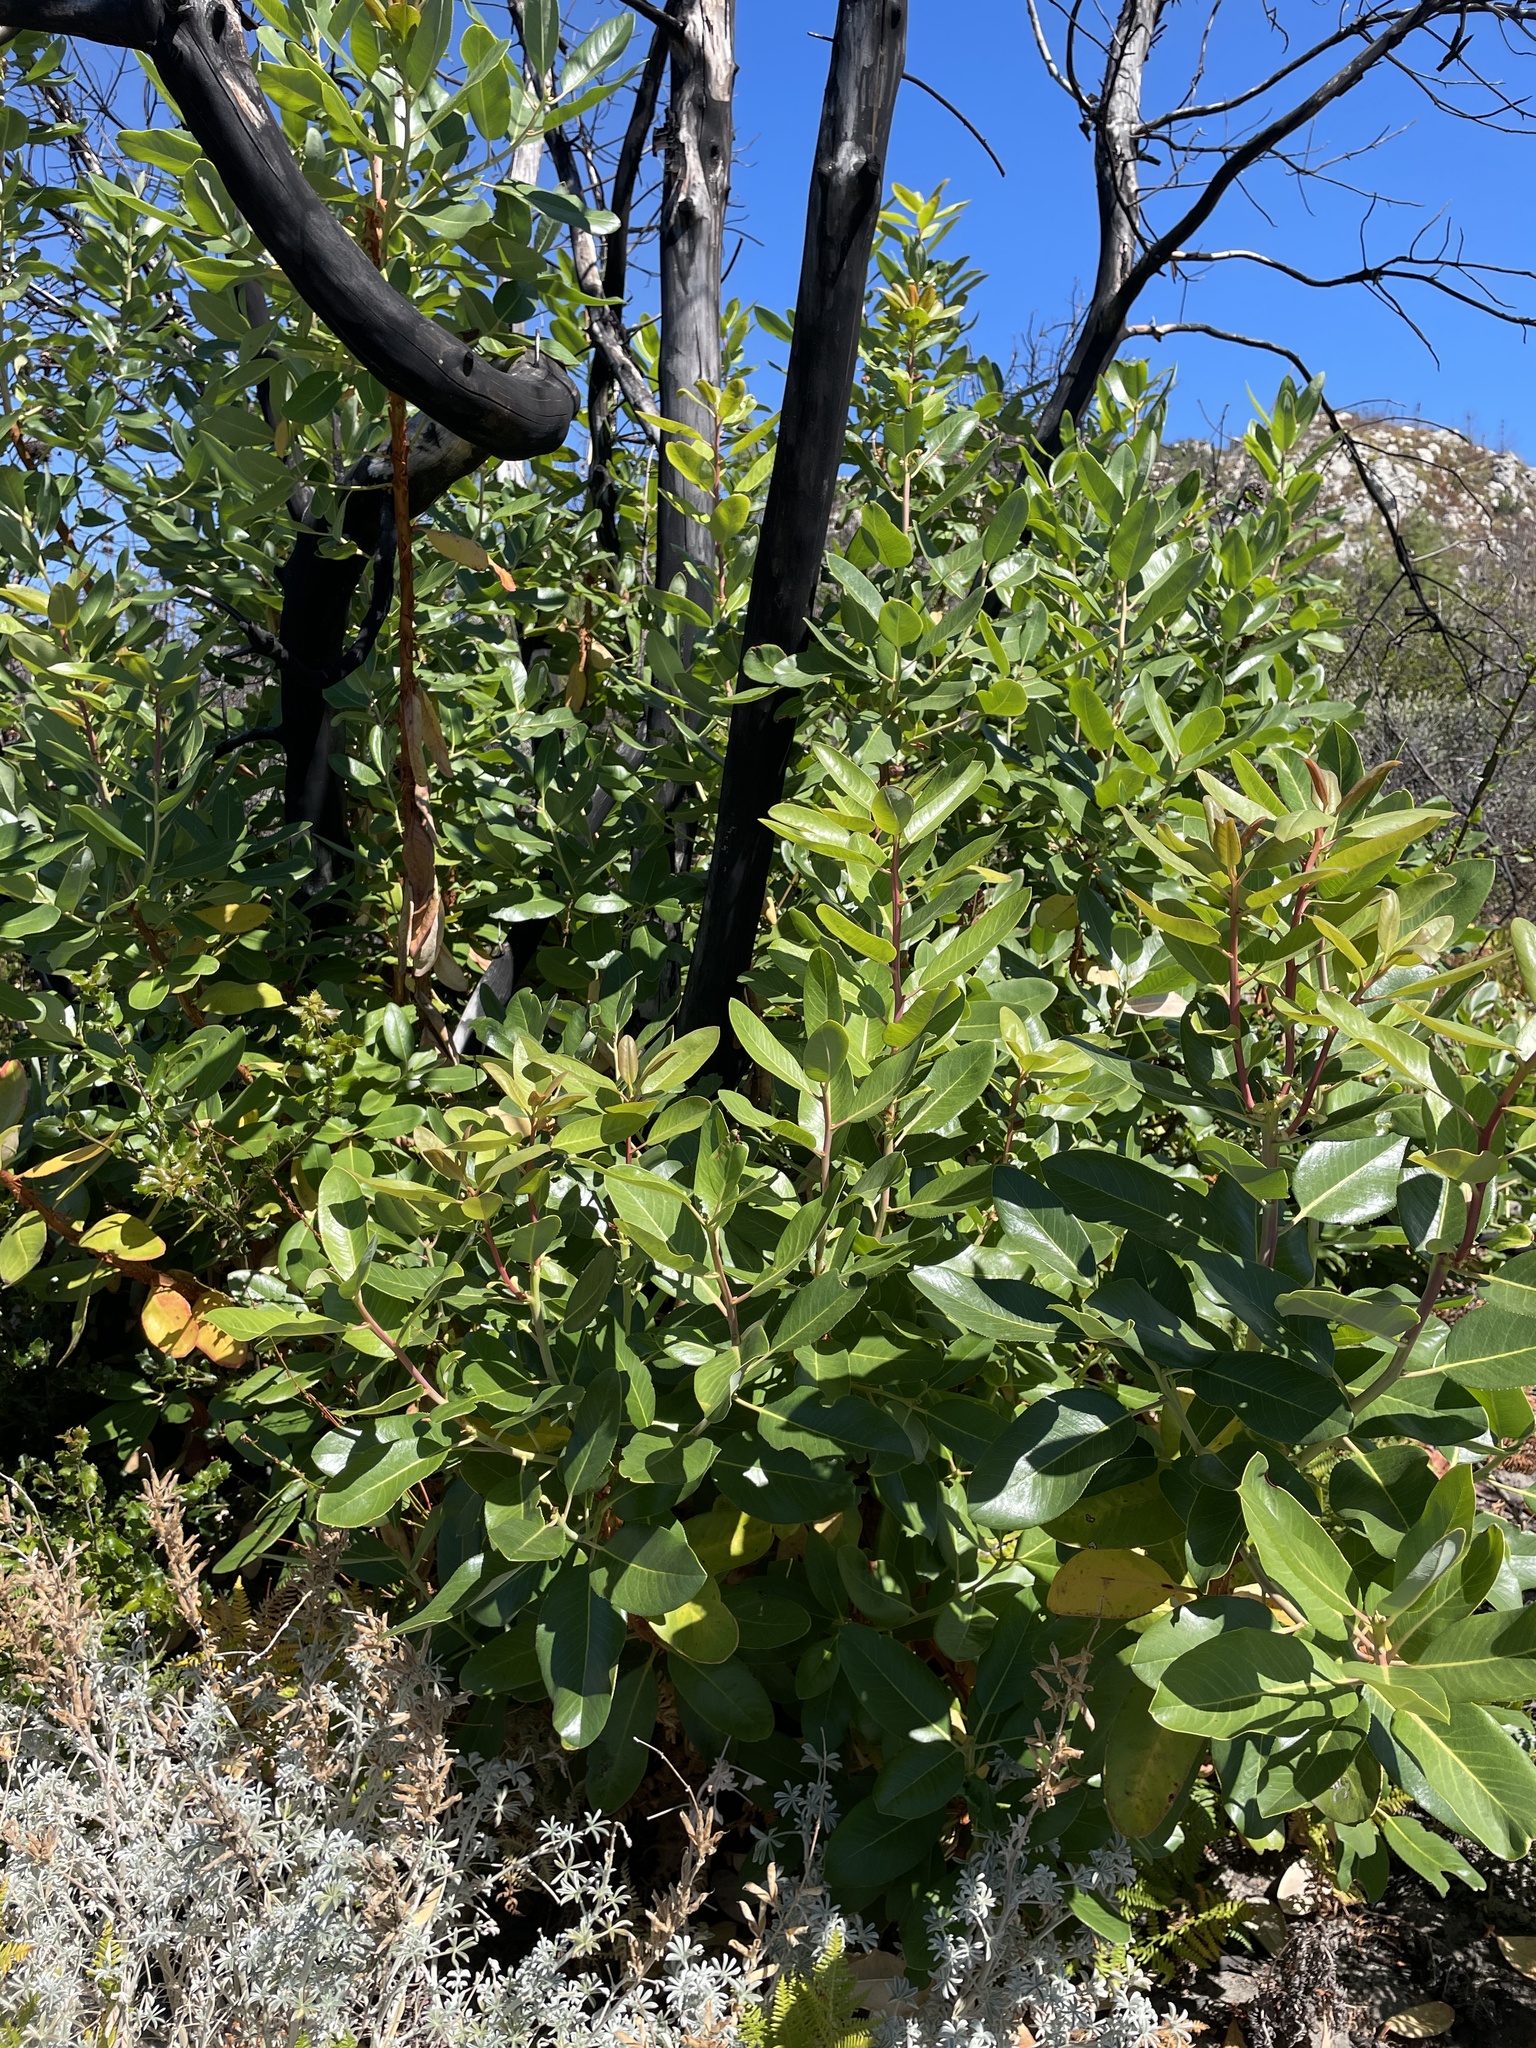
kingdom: Plantae
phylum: Tracheophyta
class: Magnoliopsida
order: Ericales
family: Ericaceae
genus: Arbutus
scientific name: Arbutus menziesii
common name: Pacific madrone
